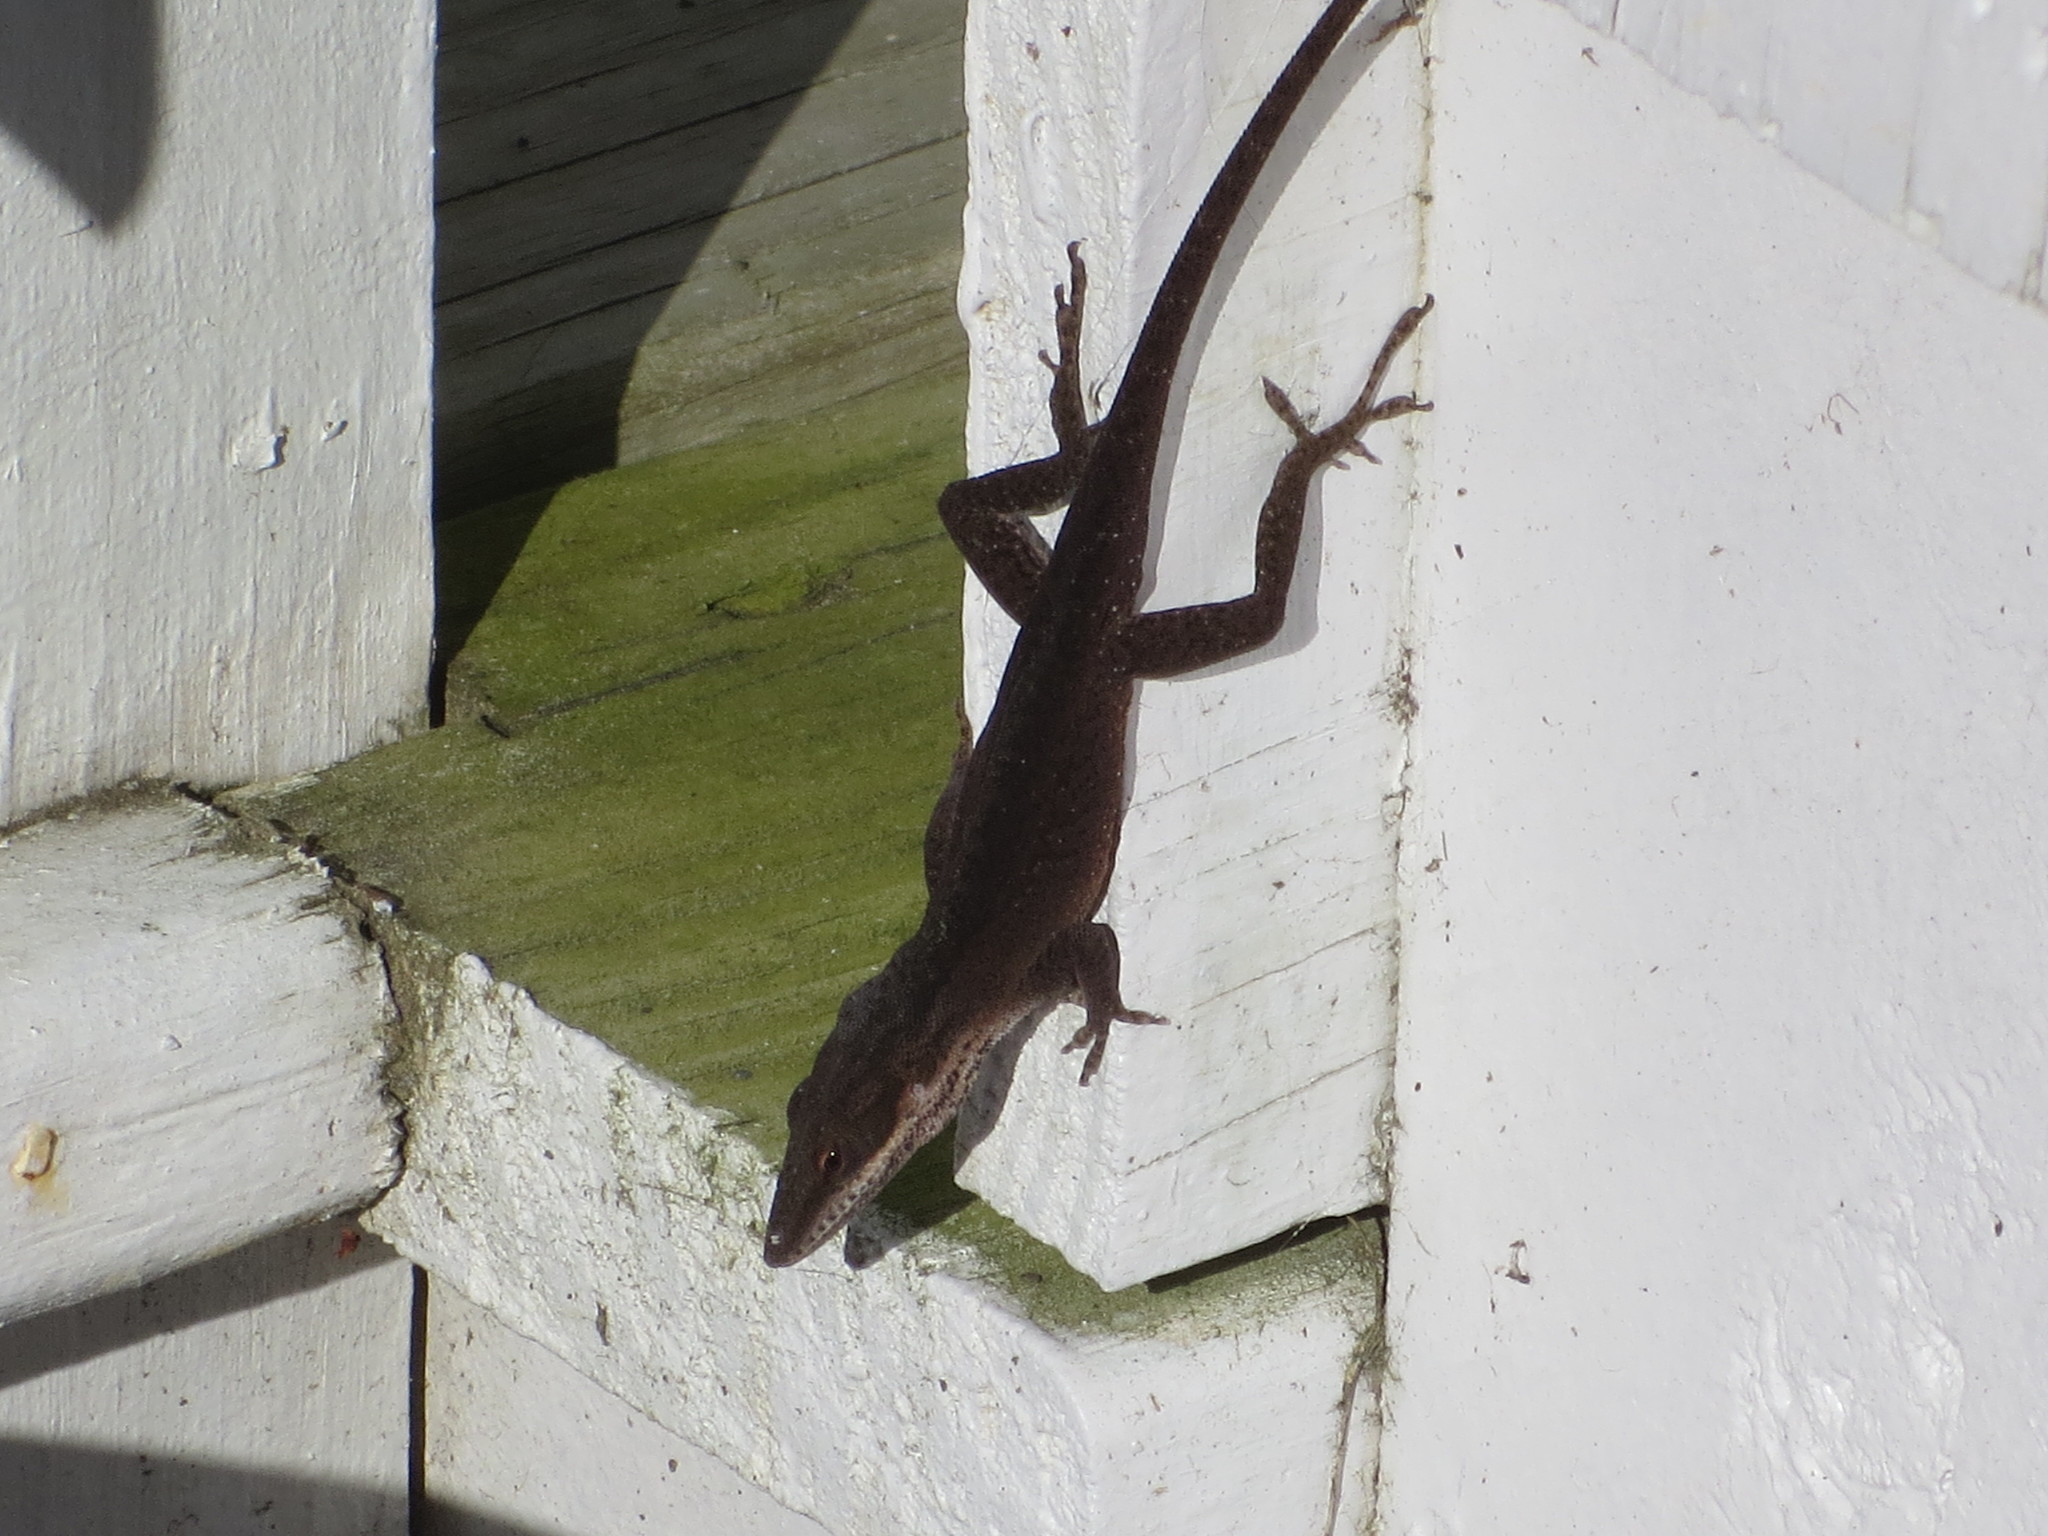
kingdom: Animalia
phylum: Chordata
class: Squamata
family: Dactyloidae
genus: Anolis
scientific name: Anolis carolinensis
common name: Green anole
